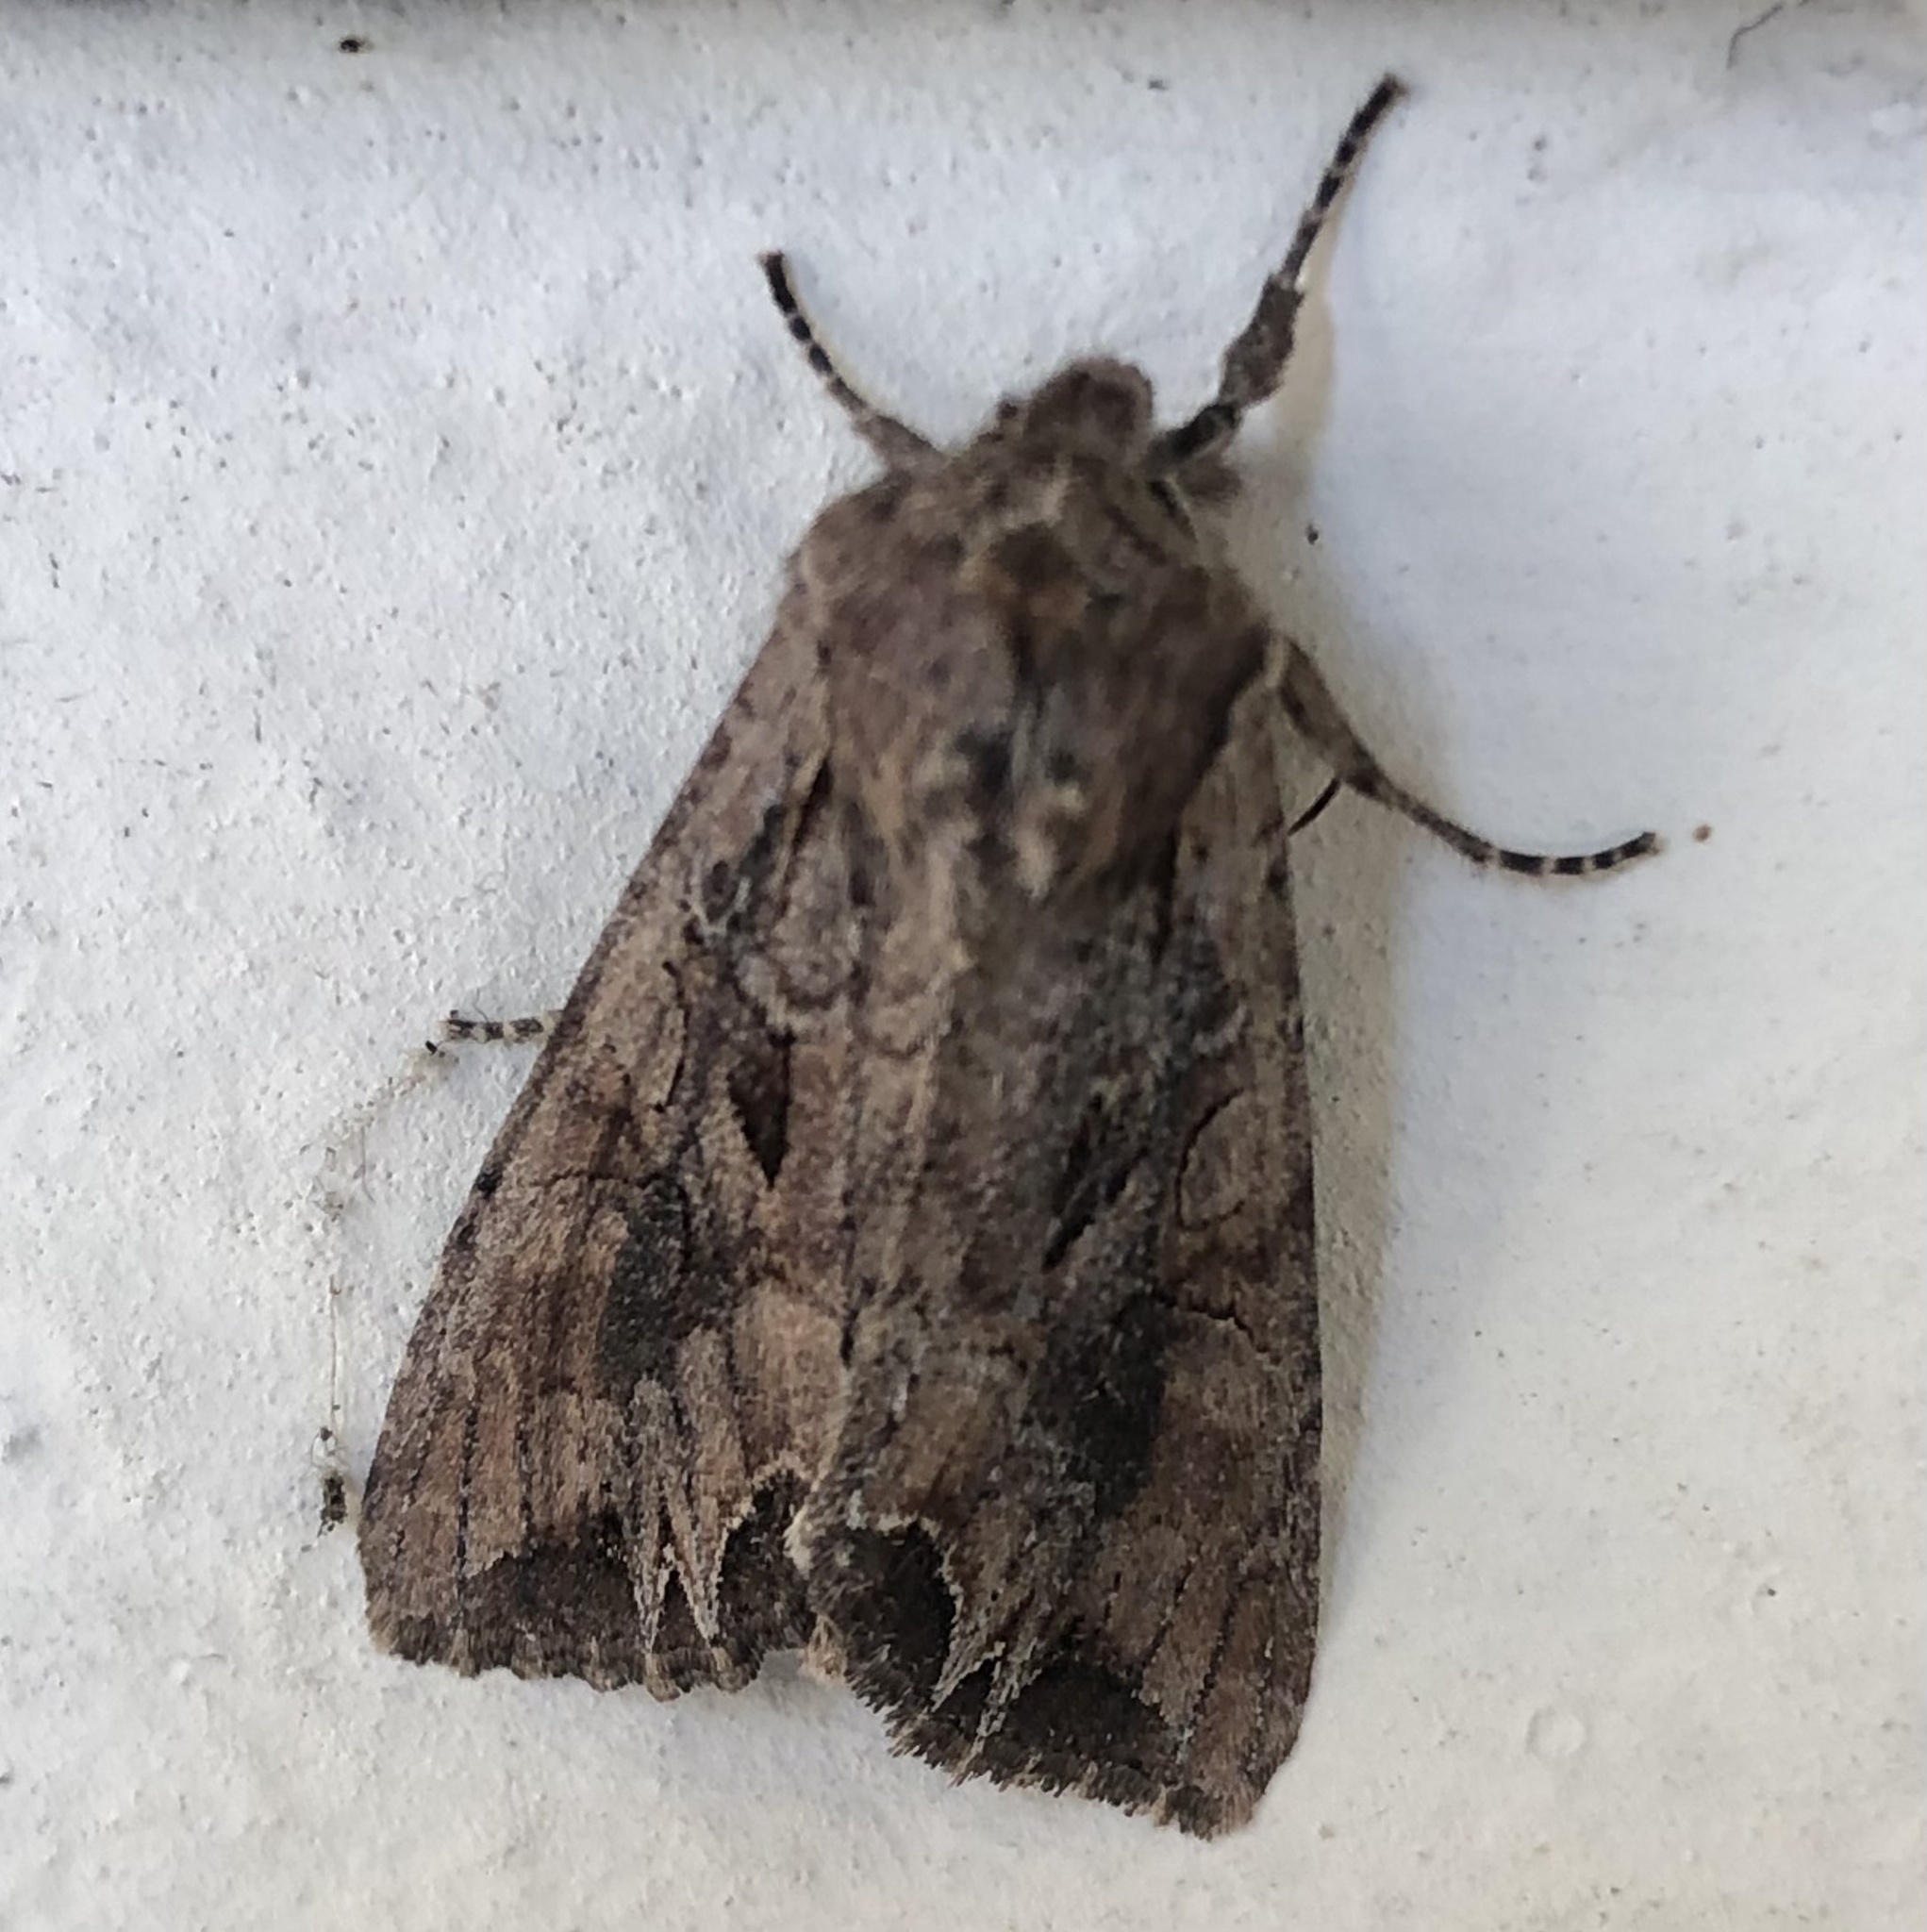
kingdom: Animalia
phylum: Arthropoda
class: Insecta
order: Lepidoptera
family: Noctuidae
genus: Lacanobia
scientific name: Lacanobia suasa
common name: Dog's tooth
